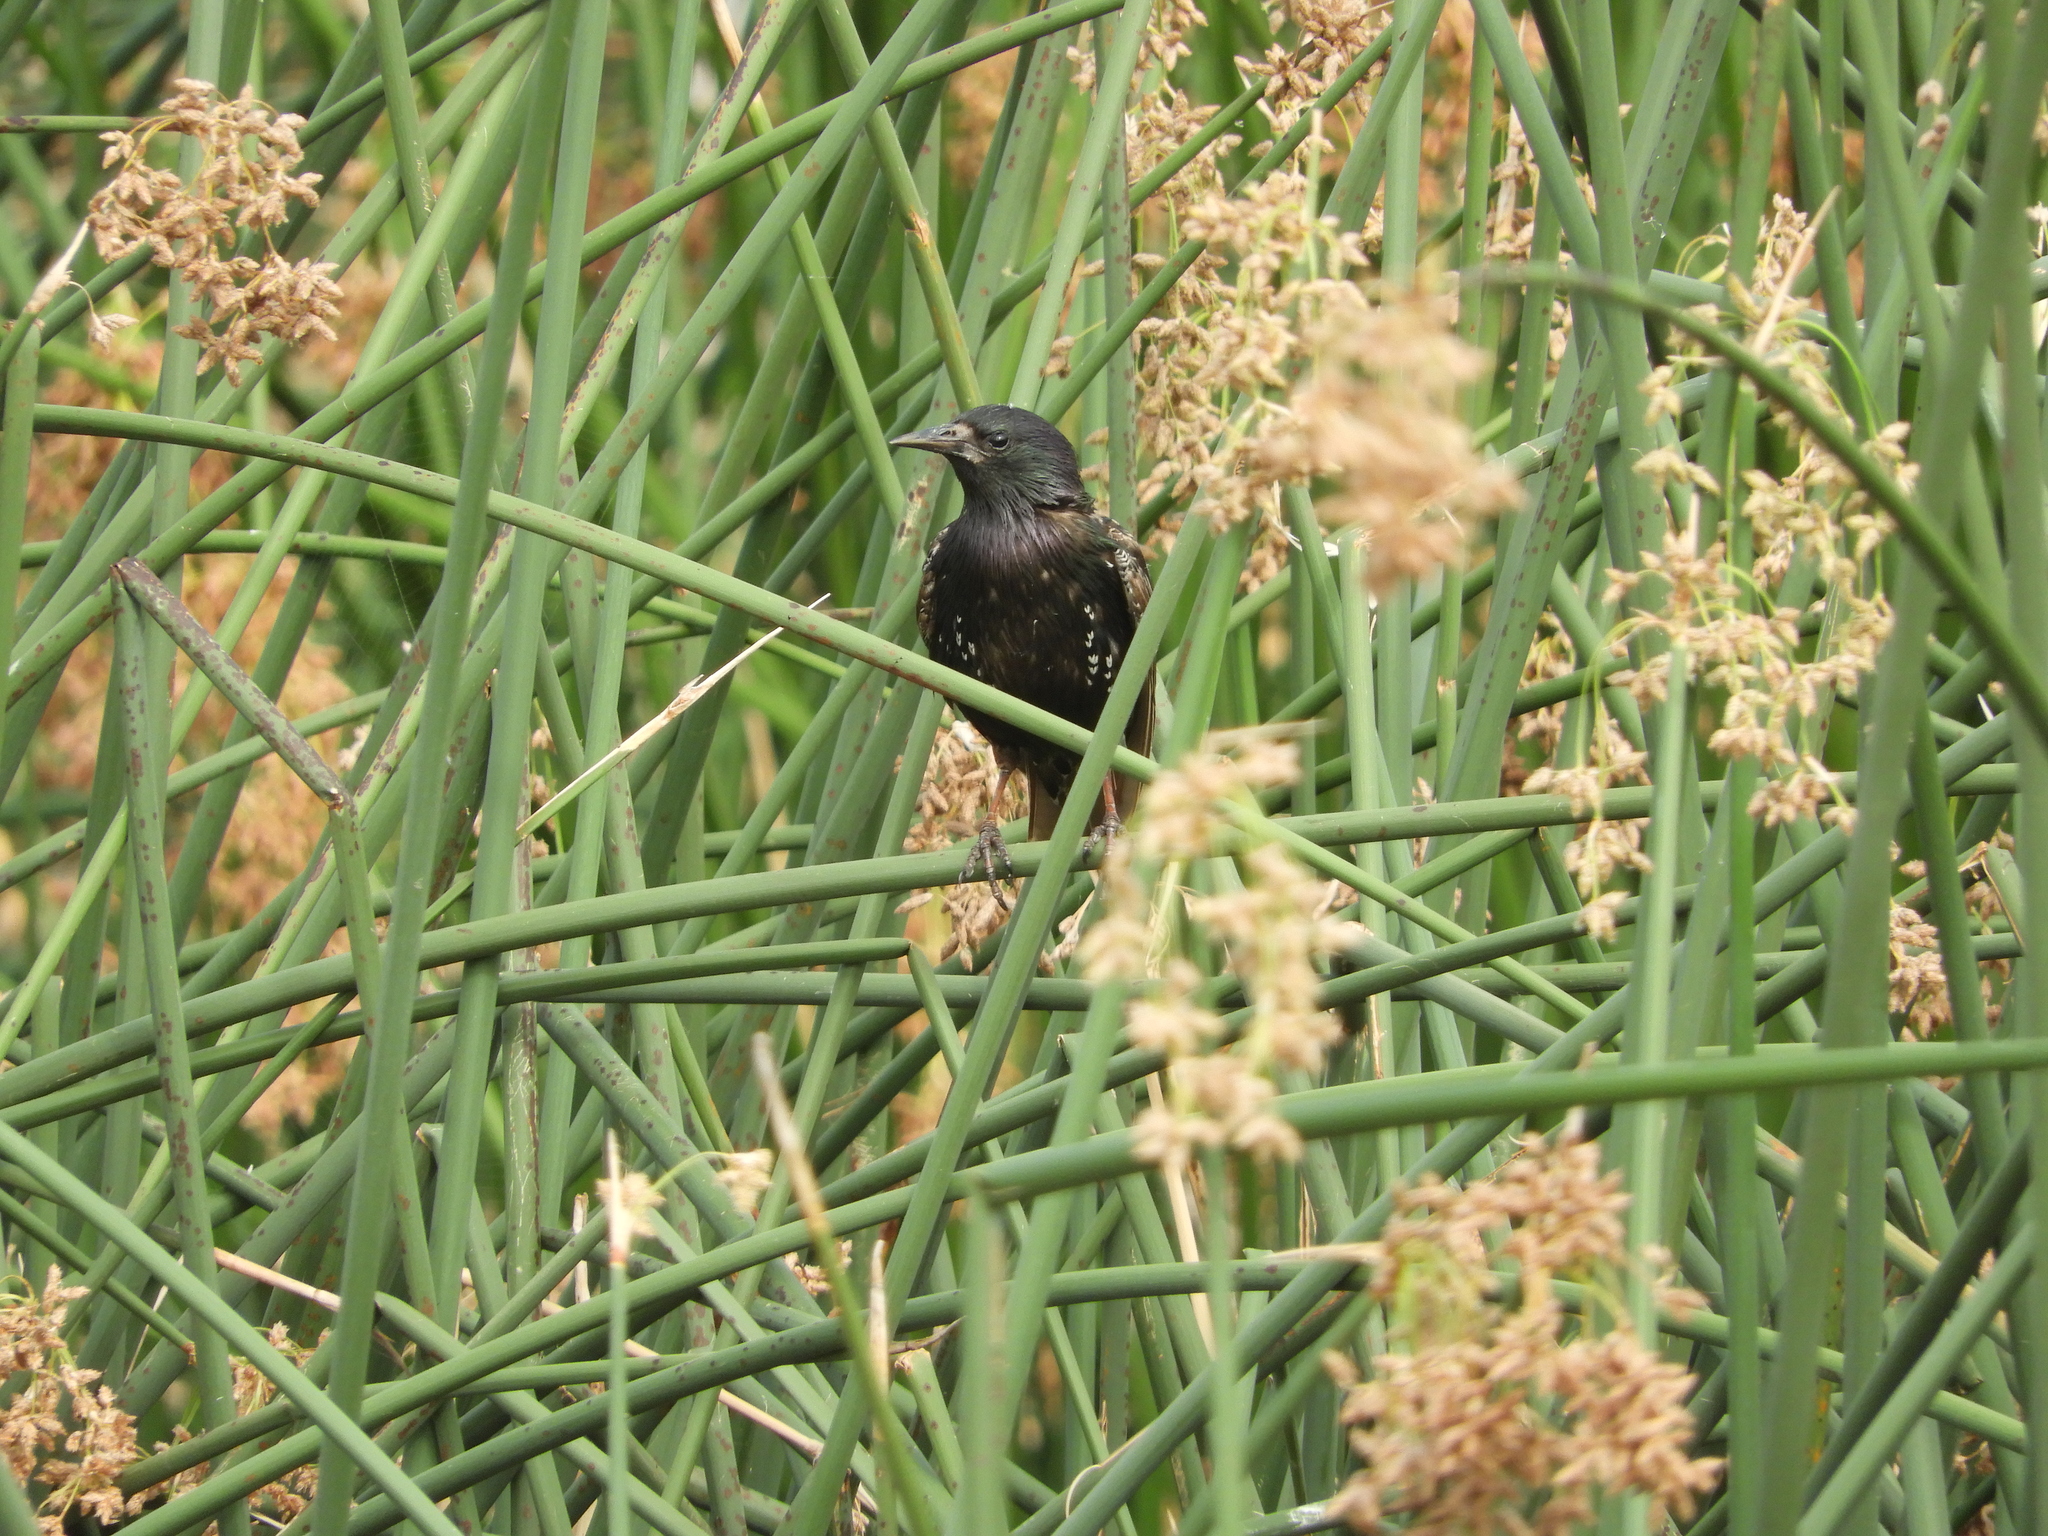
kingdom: Animalia
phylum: Chordata
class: Aves
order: Passeriformes
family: Sturnidae
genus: Sturnus
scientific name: Sturnus vulgaris
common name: Common starling
